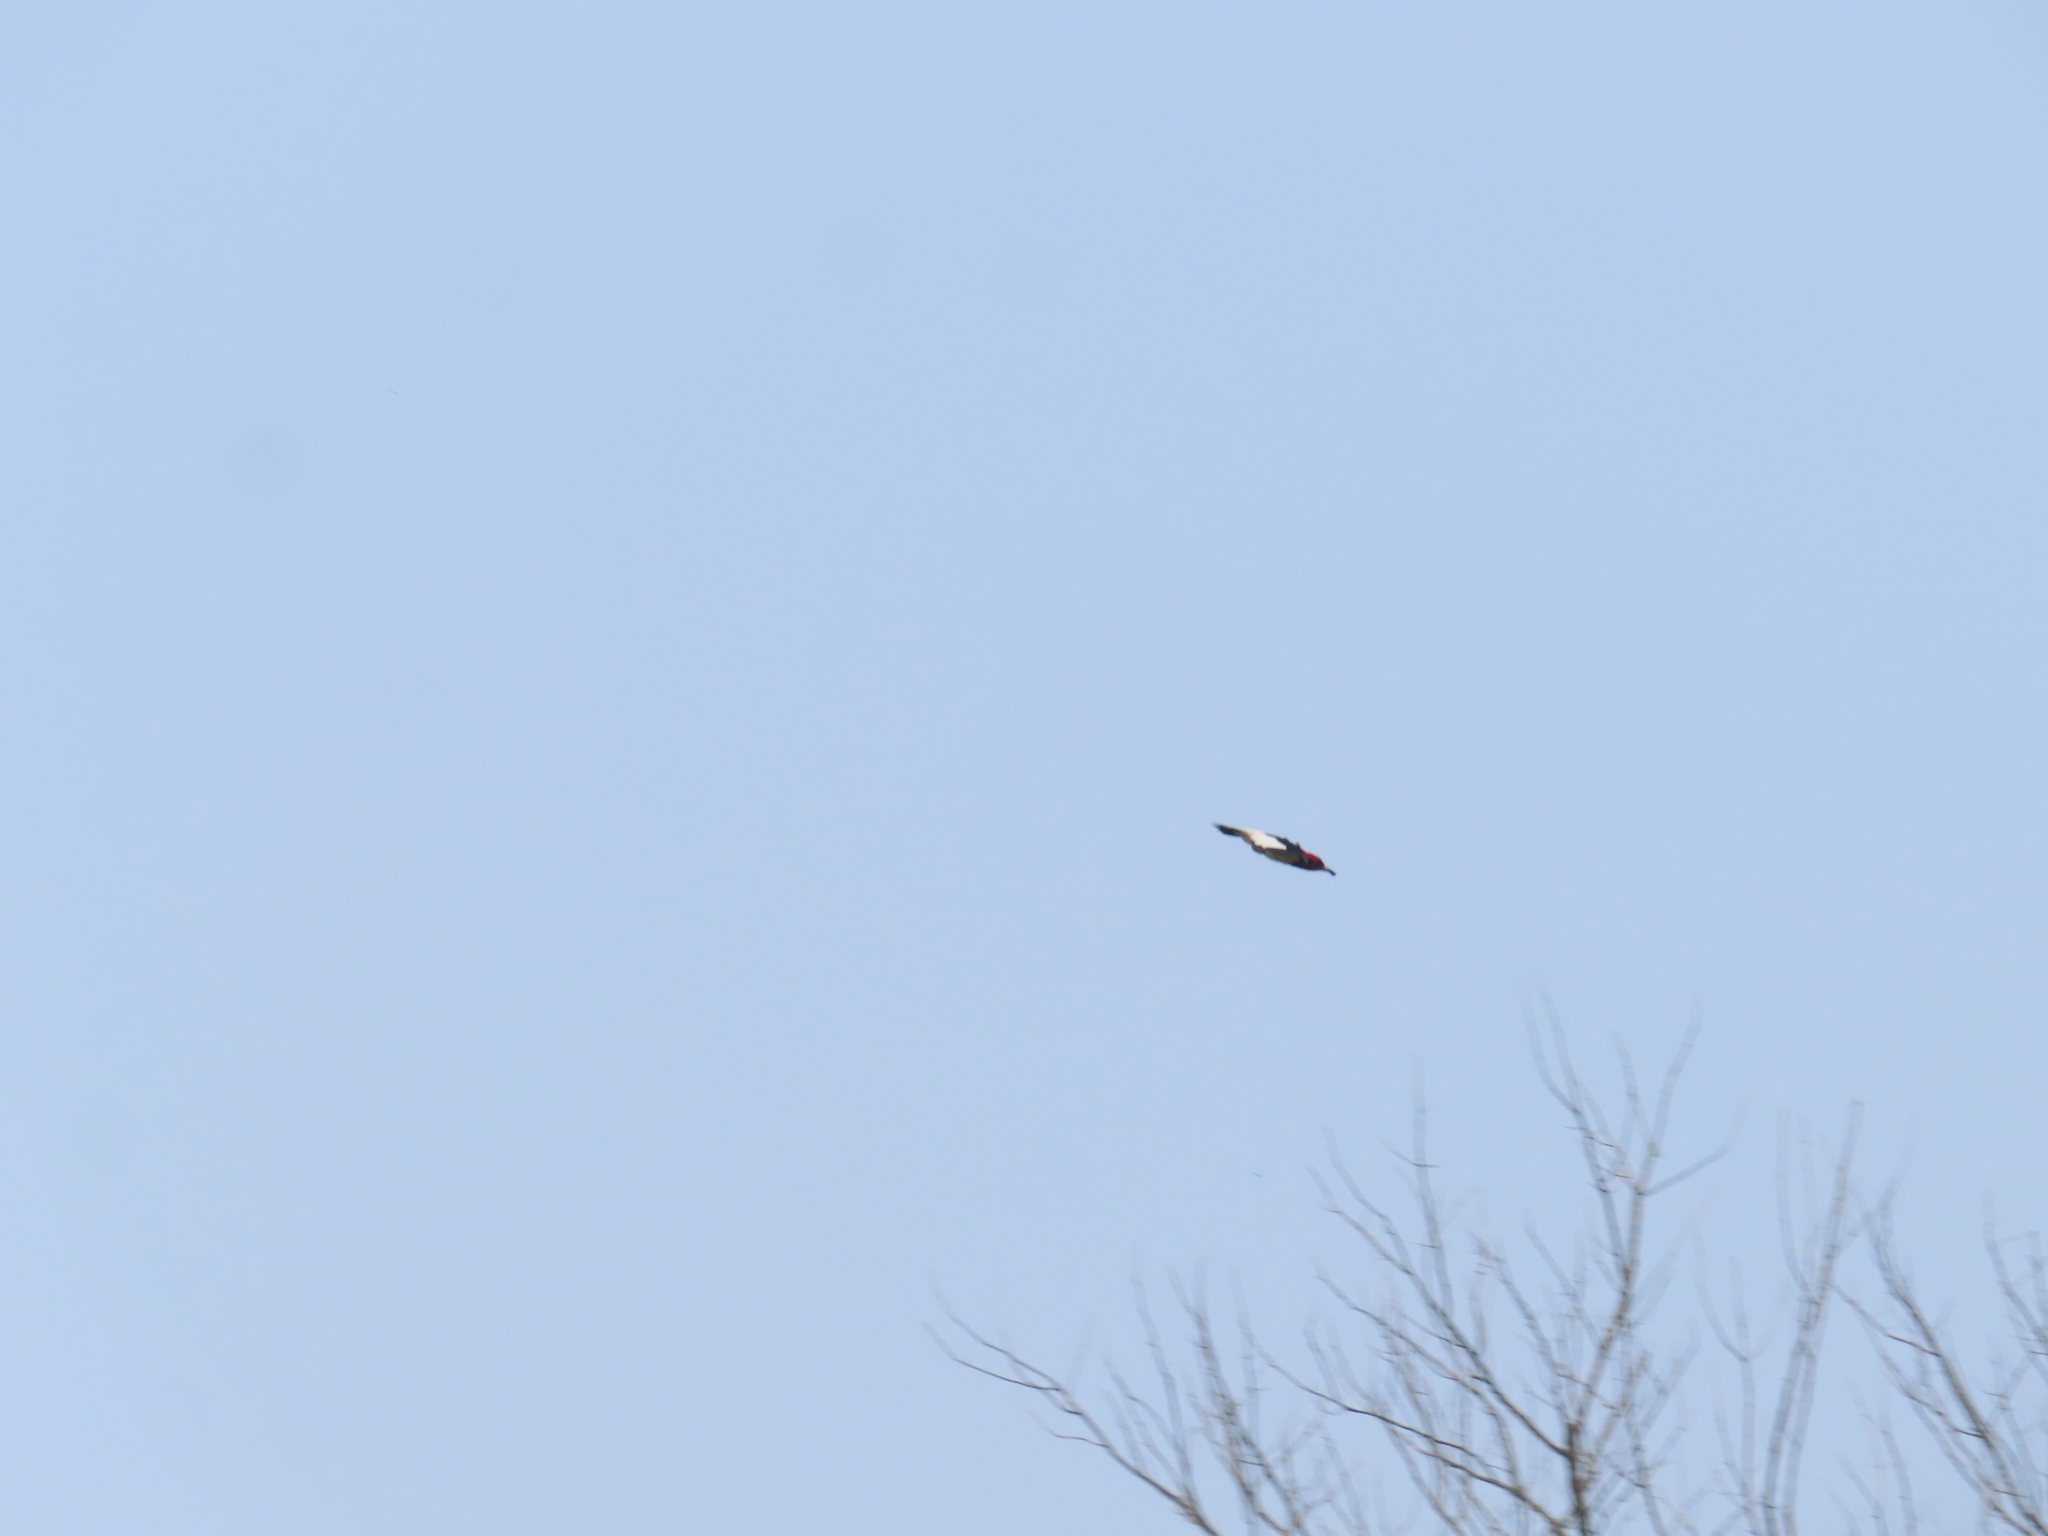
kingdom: Animalia
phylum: Chordata
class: Aves
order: Piciformes
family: Picidae
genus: Melanerpes
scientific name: Melanerpes erythrocephalus
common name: Red-headed woodpecker
